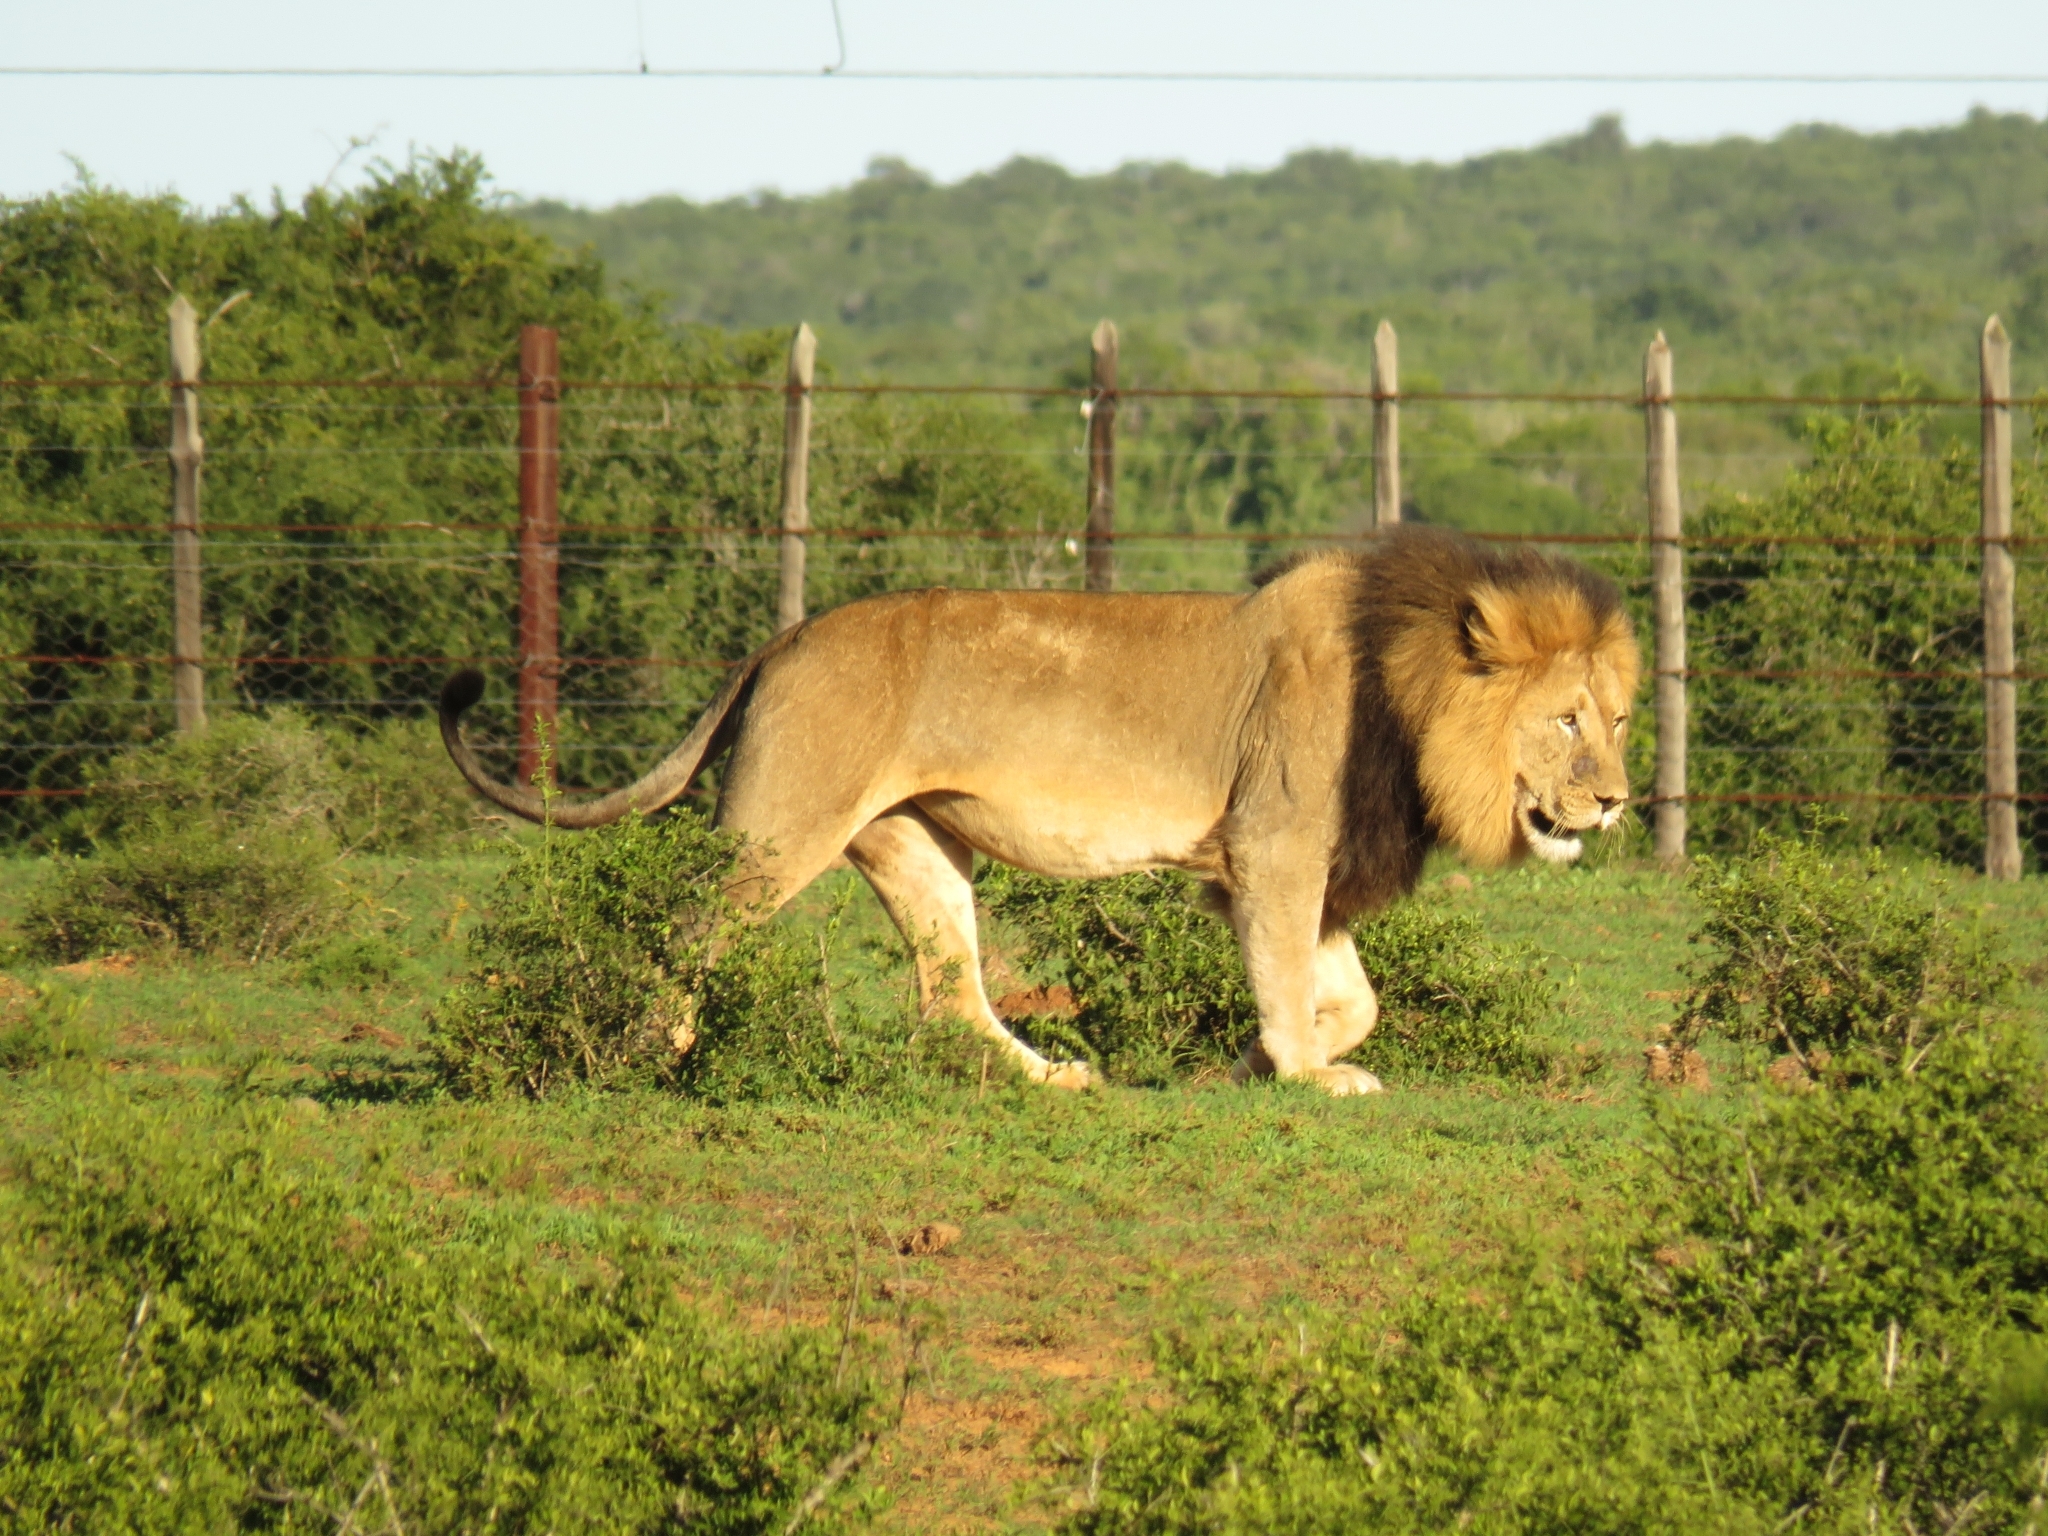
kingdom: Animalia
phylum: Chordata
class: Mammalia
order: Carnivora
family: Felidae
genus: Panthera
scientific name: Panthera leo
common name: Lion
